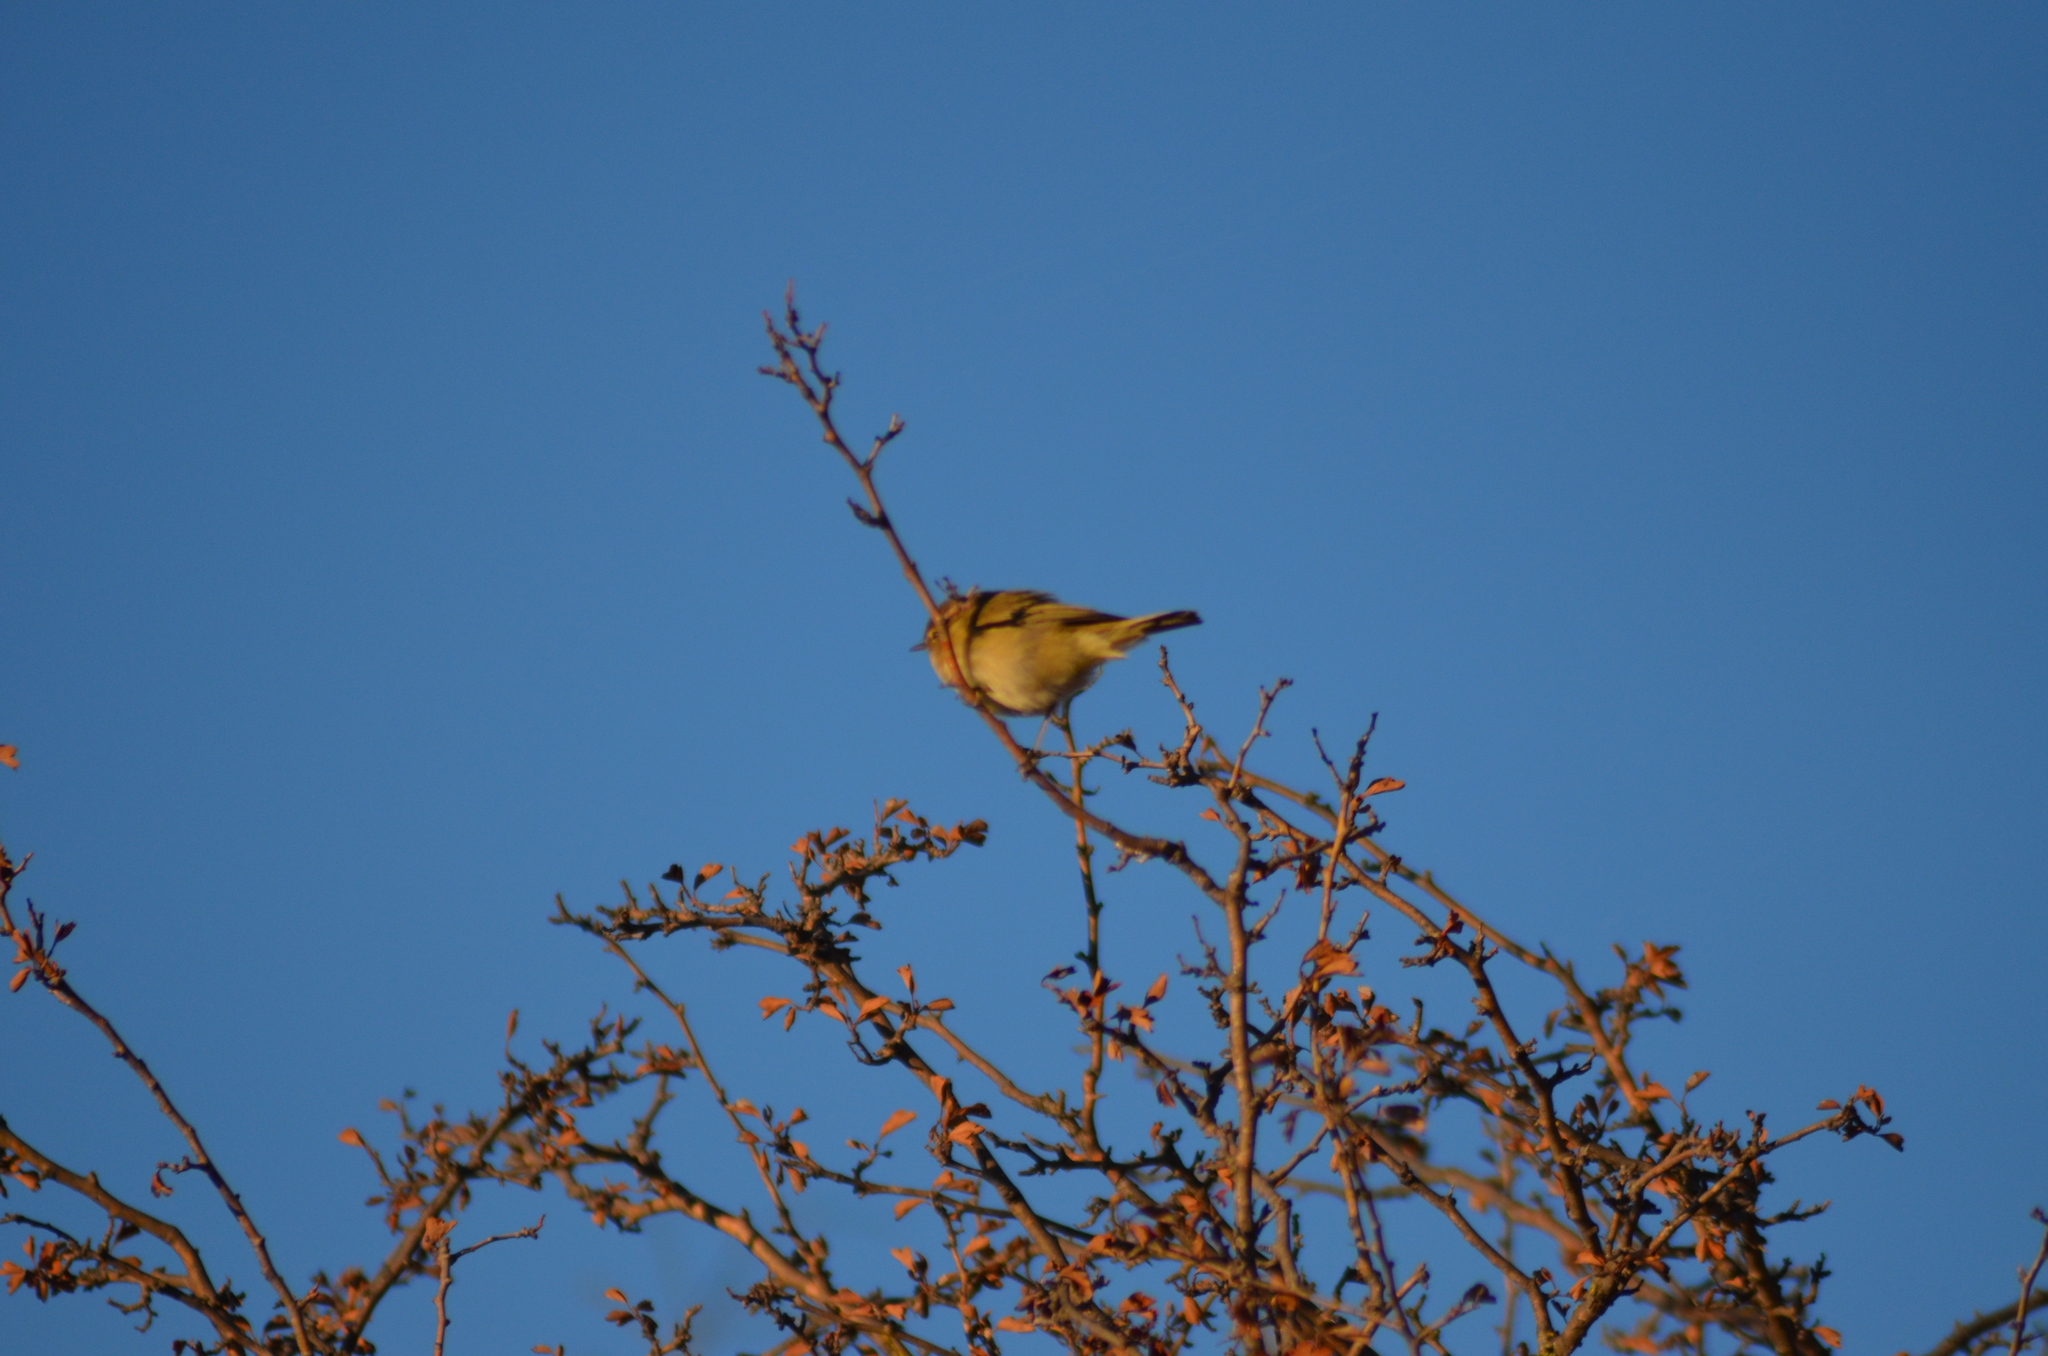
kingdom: Animalia
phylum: Chordata
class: Aves
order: Passeriformes
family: Phylloscopidae
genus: Phylloscopus
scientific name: Phylloscopus collybita
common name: Common chiffchaff
